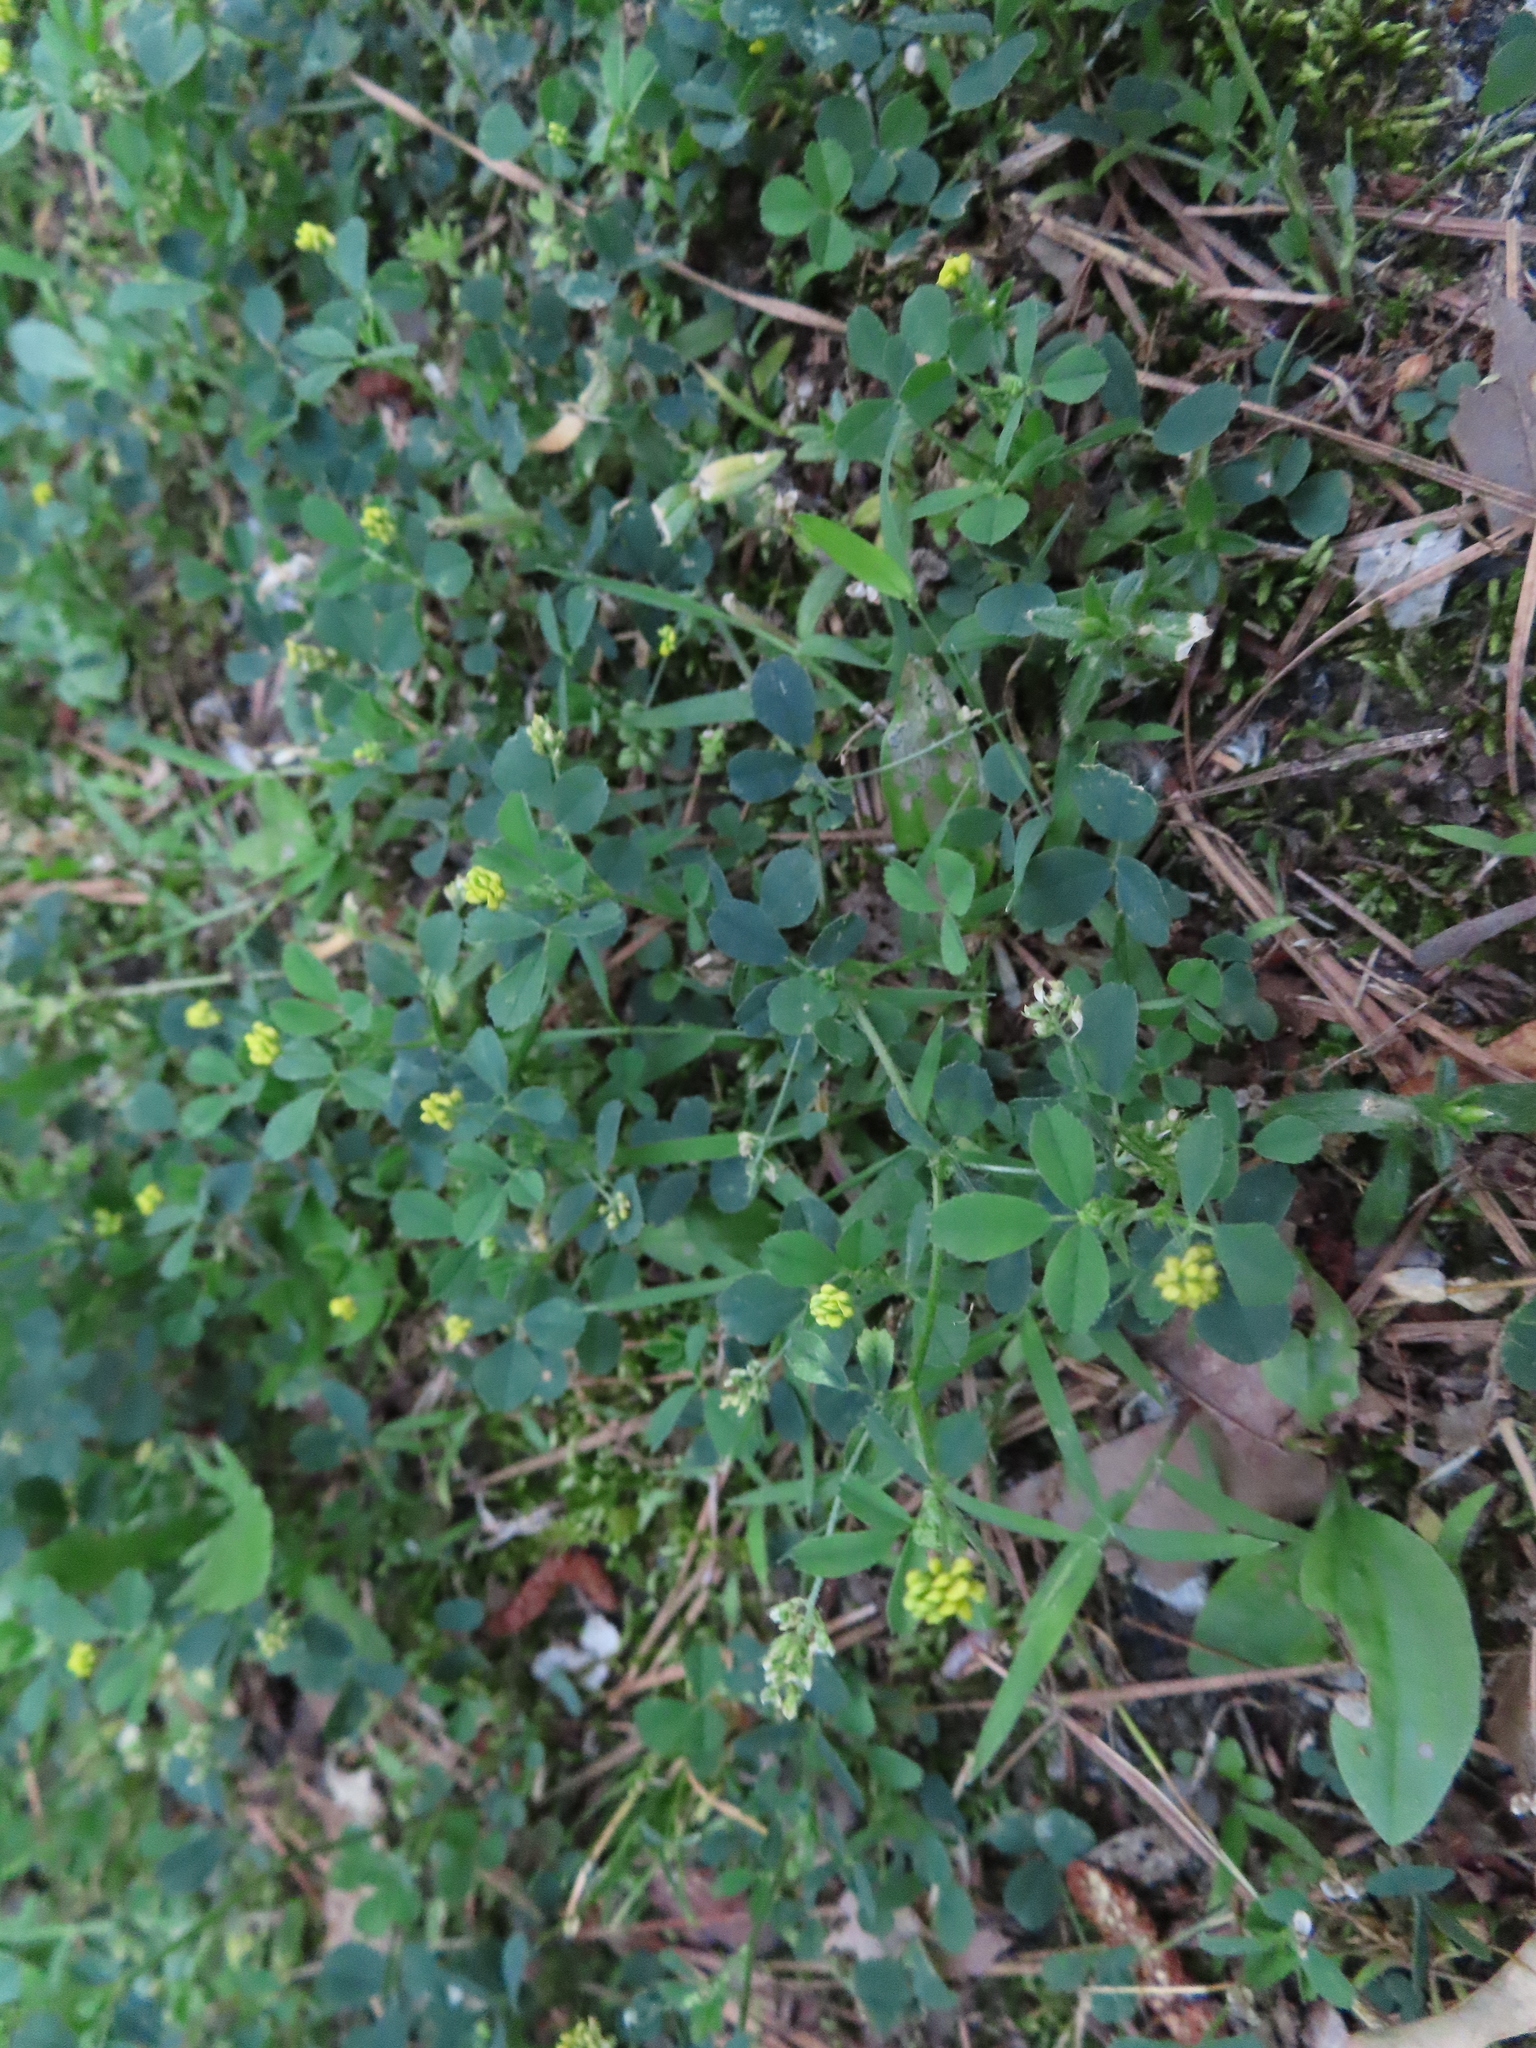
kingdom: Plantae
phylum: Tracheophyta
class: Magnoliopsida
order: Fabales
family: Fabaceae
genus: Medicago
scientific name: Medicago lupulina
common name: Black medick
